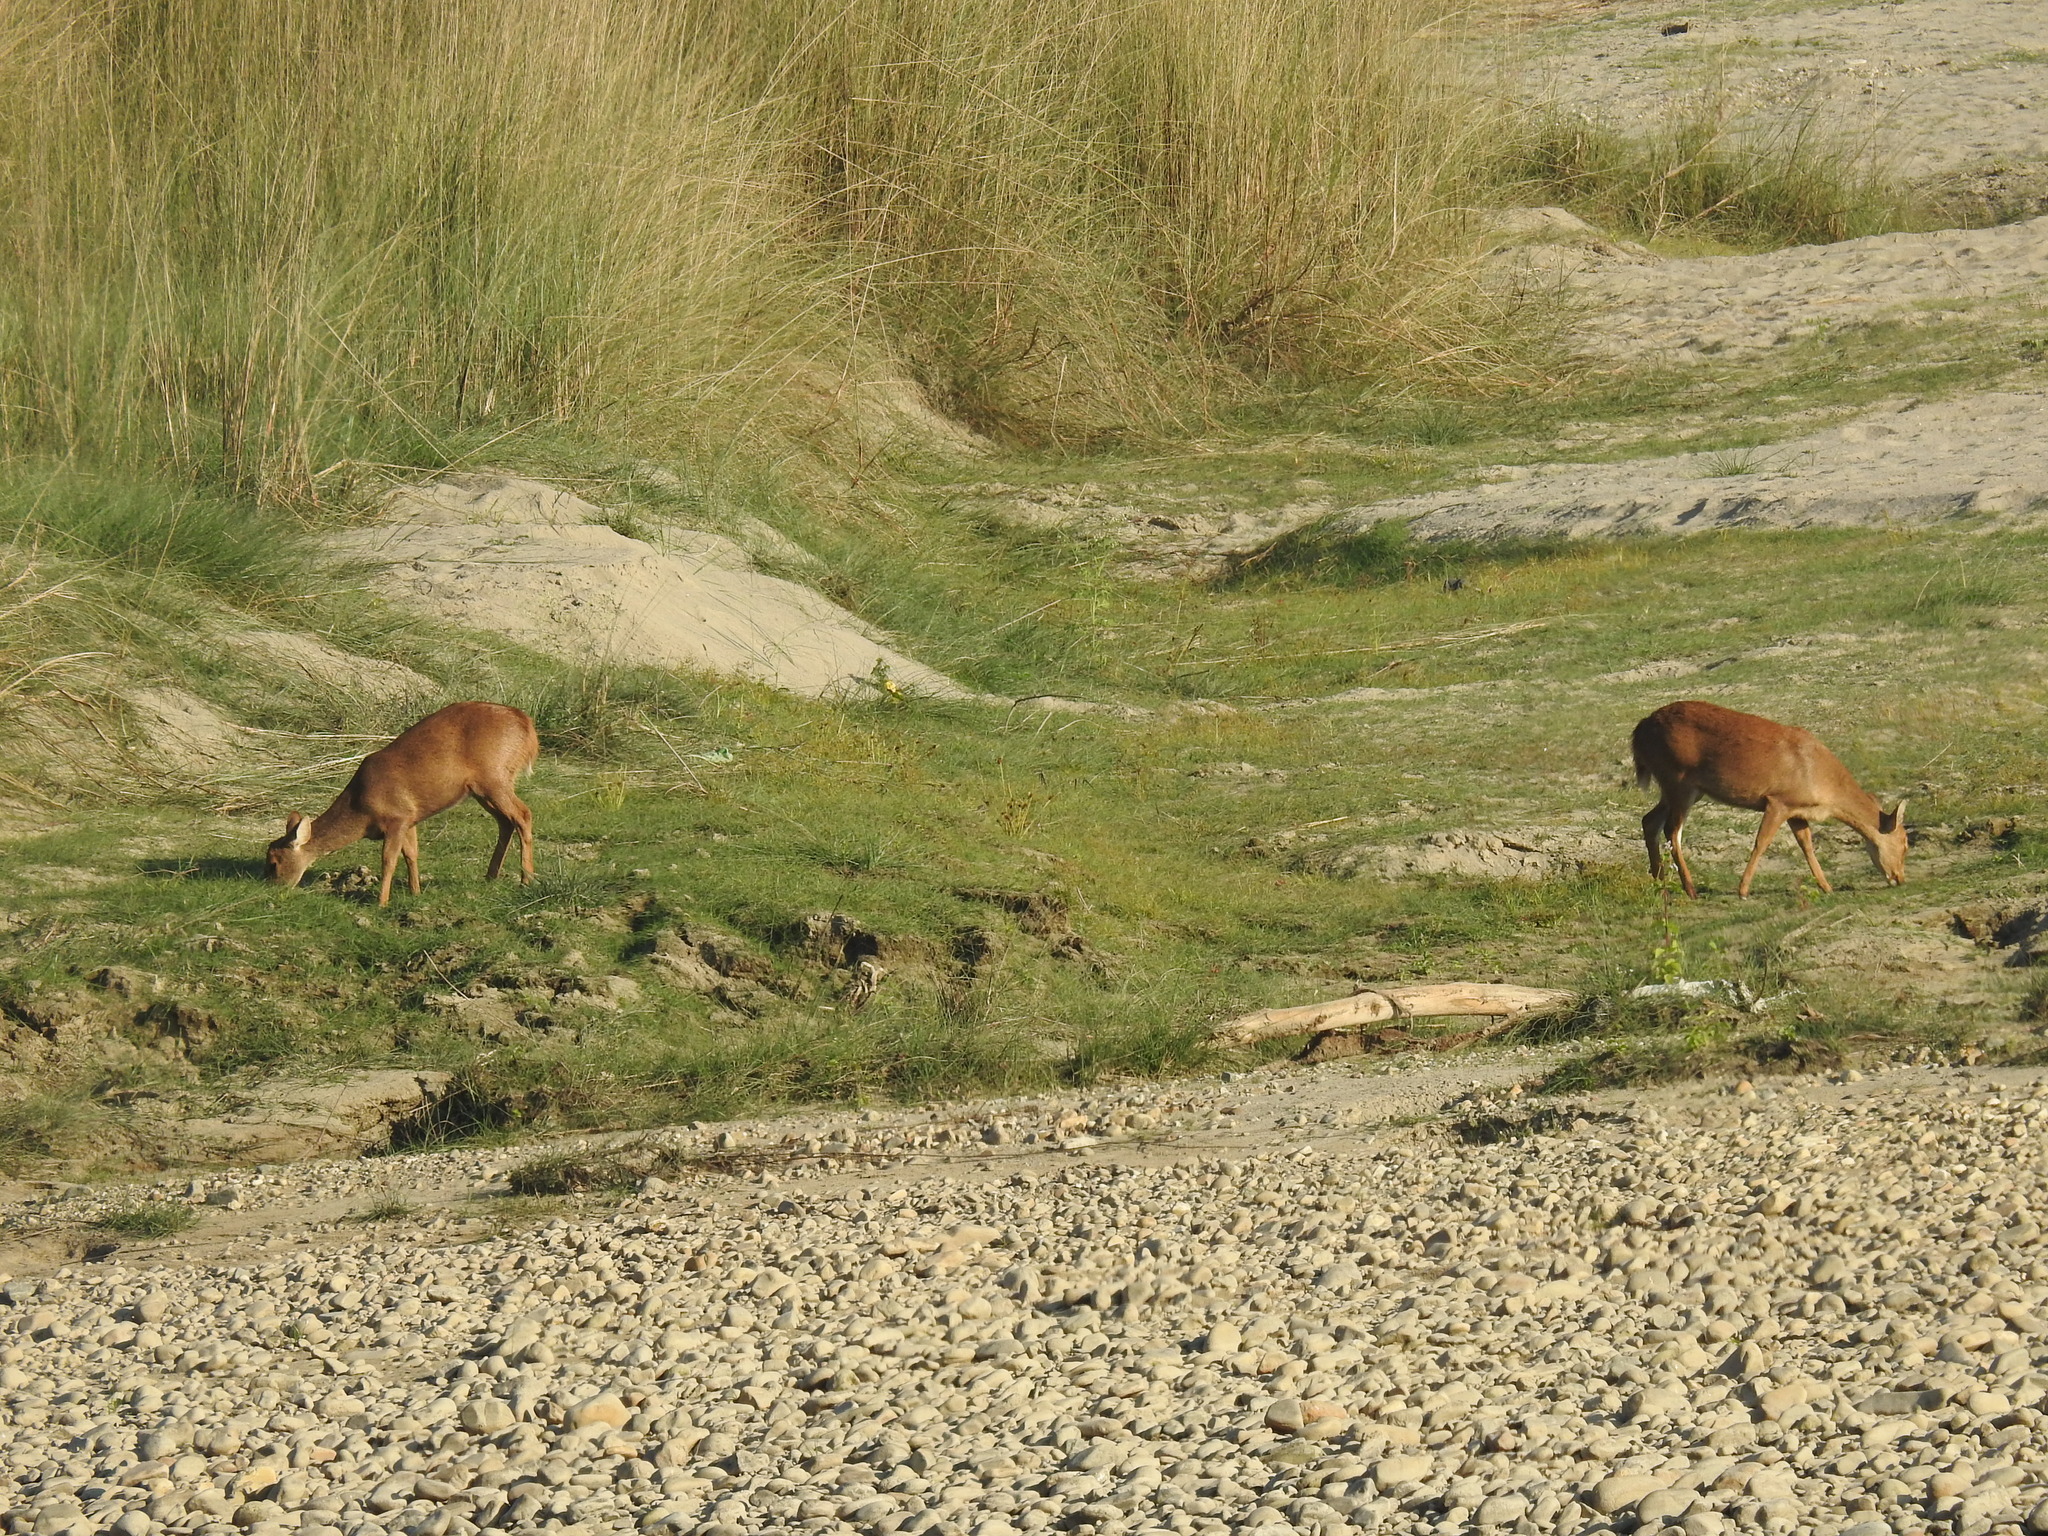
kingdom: Animalia
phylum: Chordata
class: Mammalia
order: Artiodactyla
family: Cervidae
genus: Axis
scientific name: Axis porcinus
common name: Hog deer
